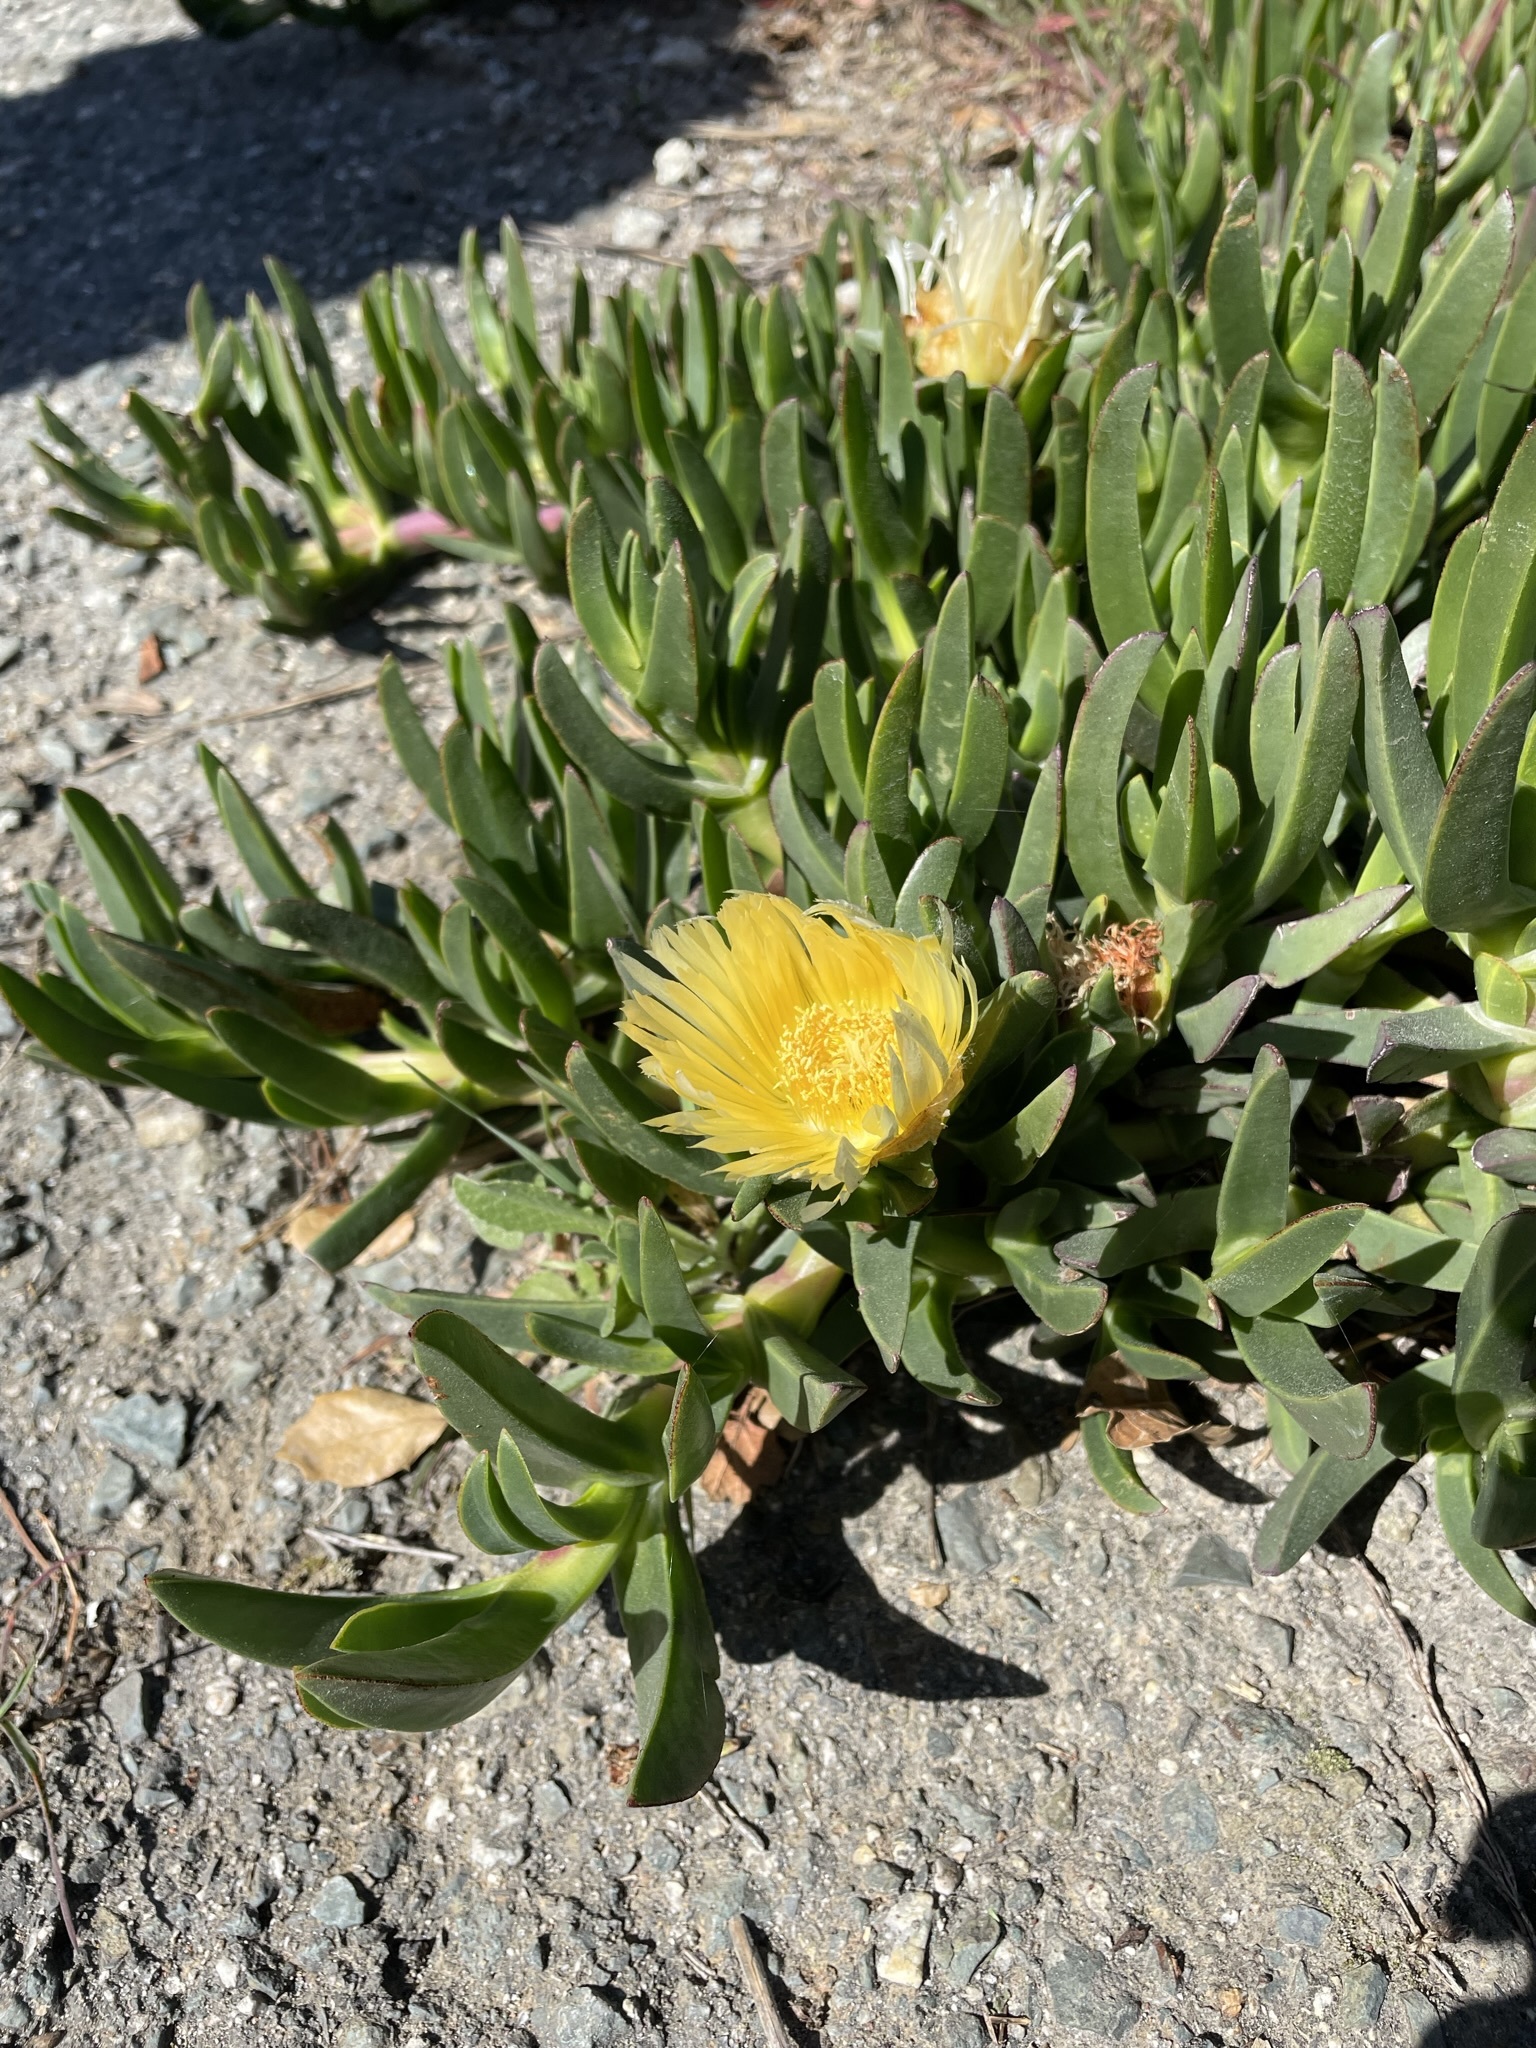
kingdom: Plantae
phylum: Tracheophyta
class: Magnoliopsida
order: Caryophyllales
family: Aizoaceae
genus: Carpobrotus
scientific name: Carpobrotus edulis
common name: Hottentot-fig
